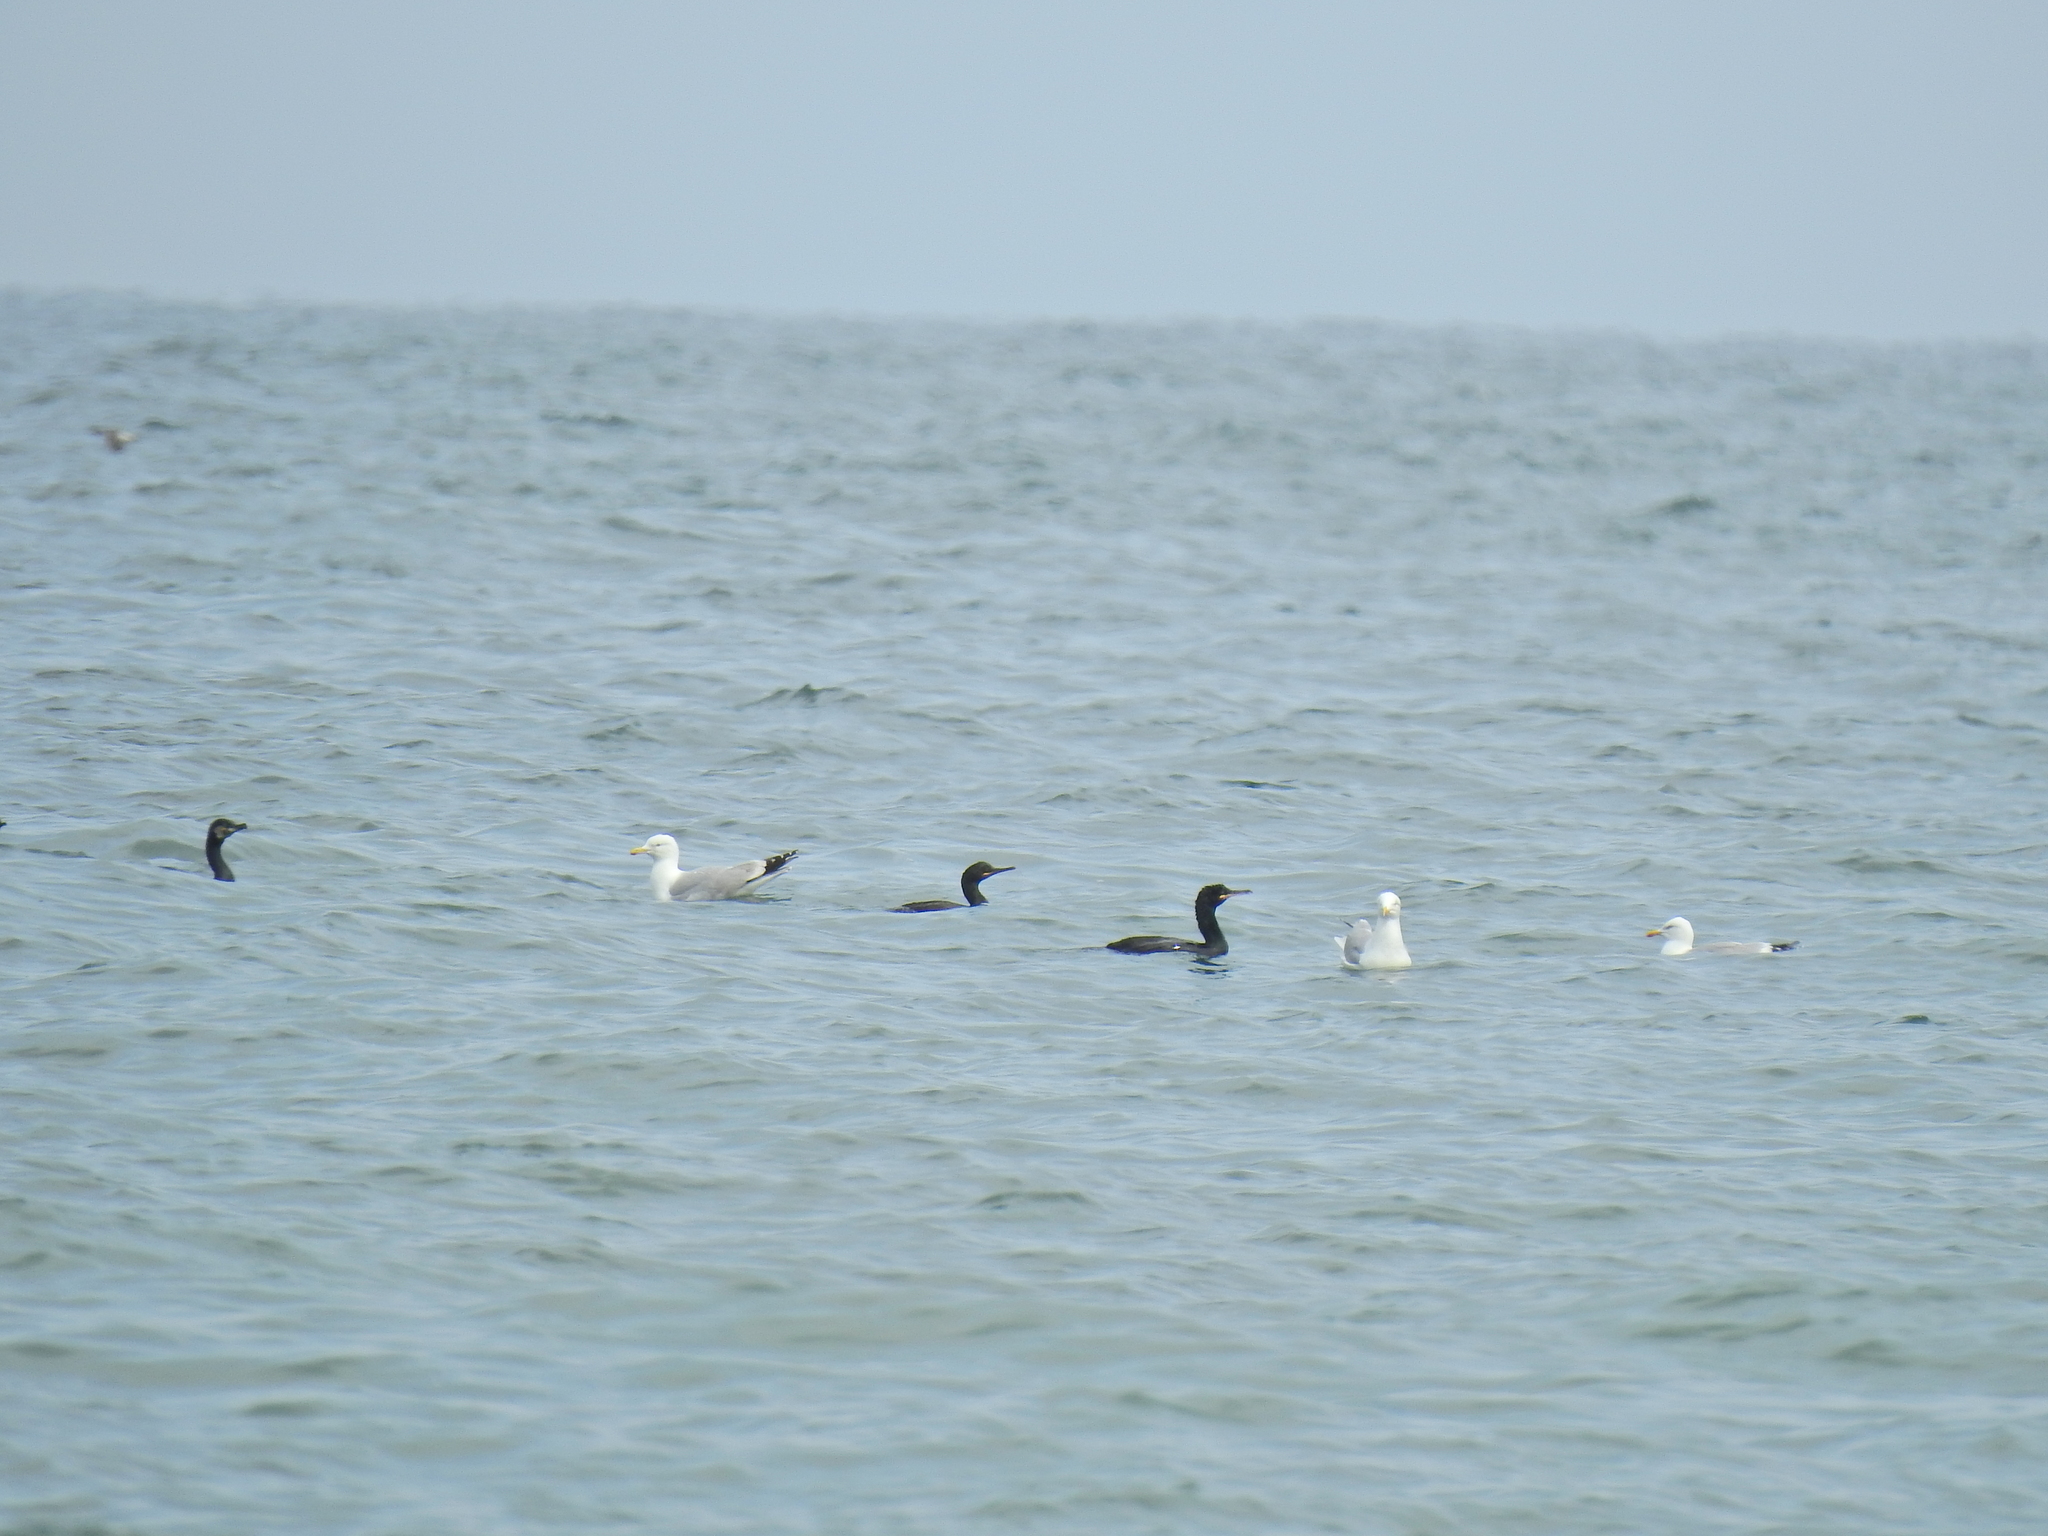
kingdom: Animalia
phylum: Chordata
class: Aves
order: Suliformes
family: Phalacrocoracidae
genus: Phalacrocorax
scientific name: Phalacrocorax aristotelis
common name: European shag
